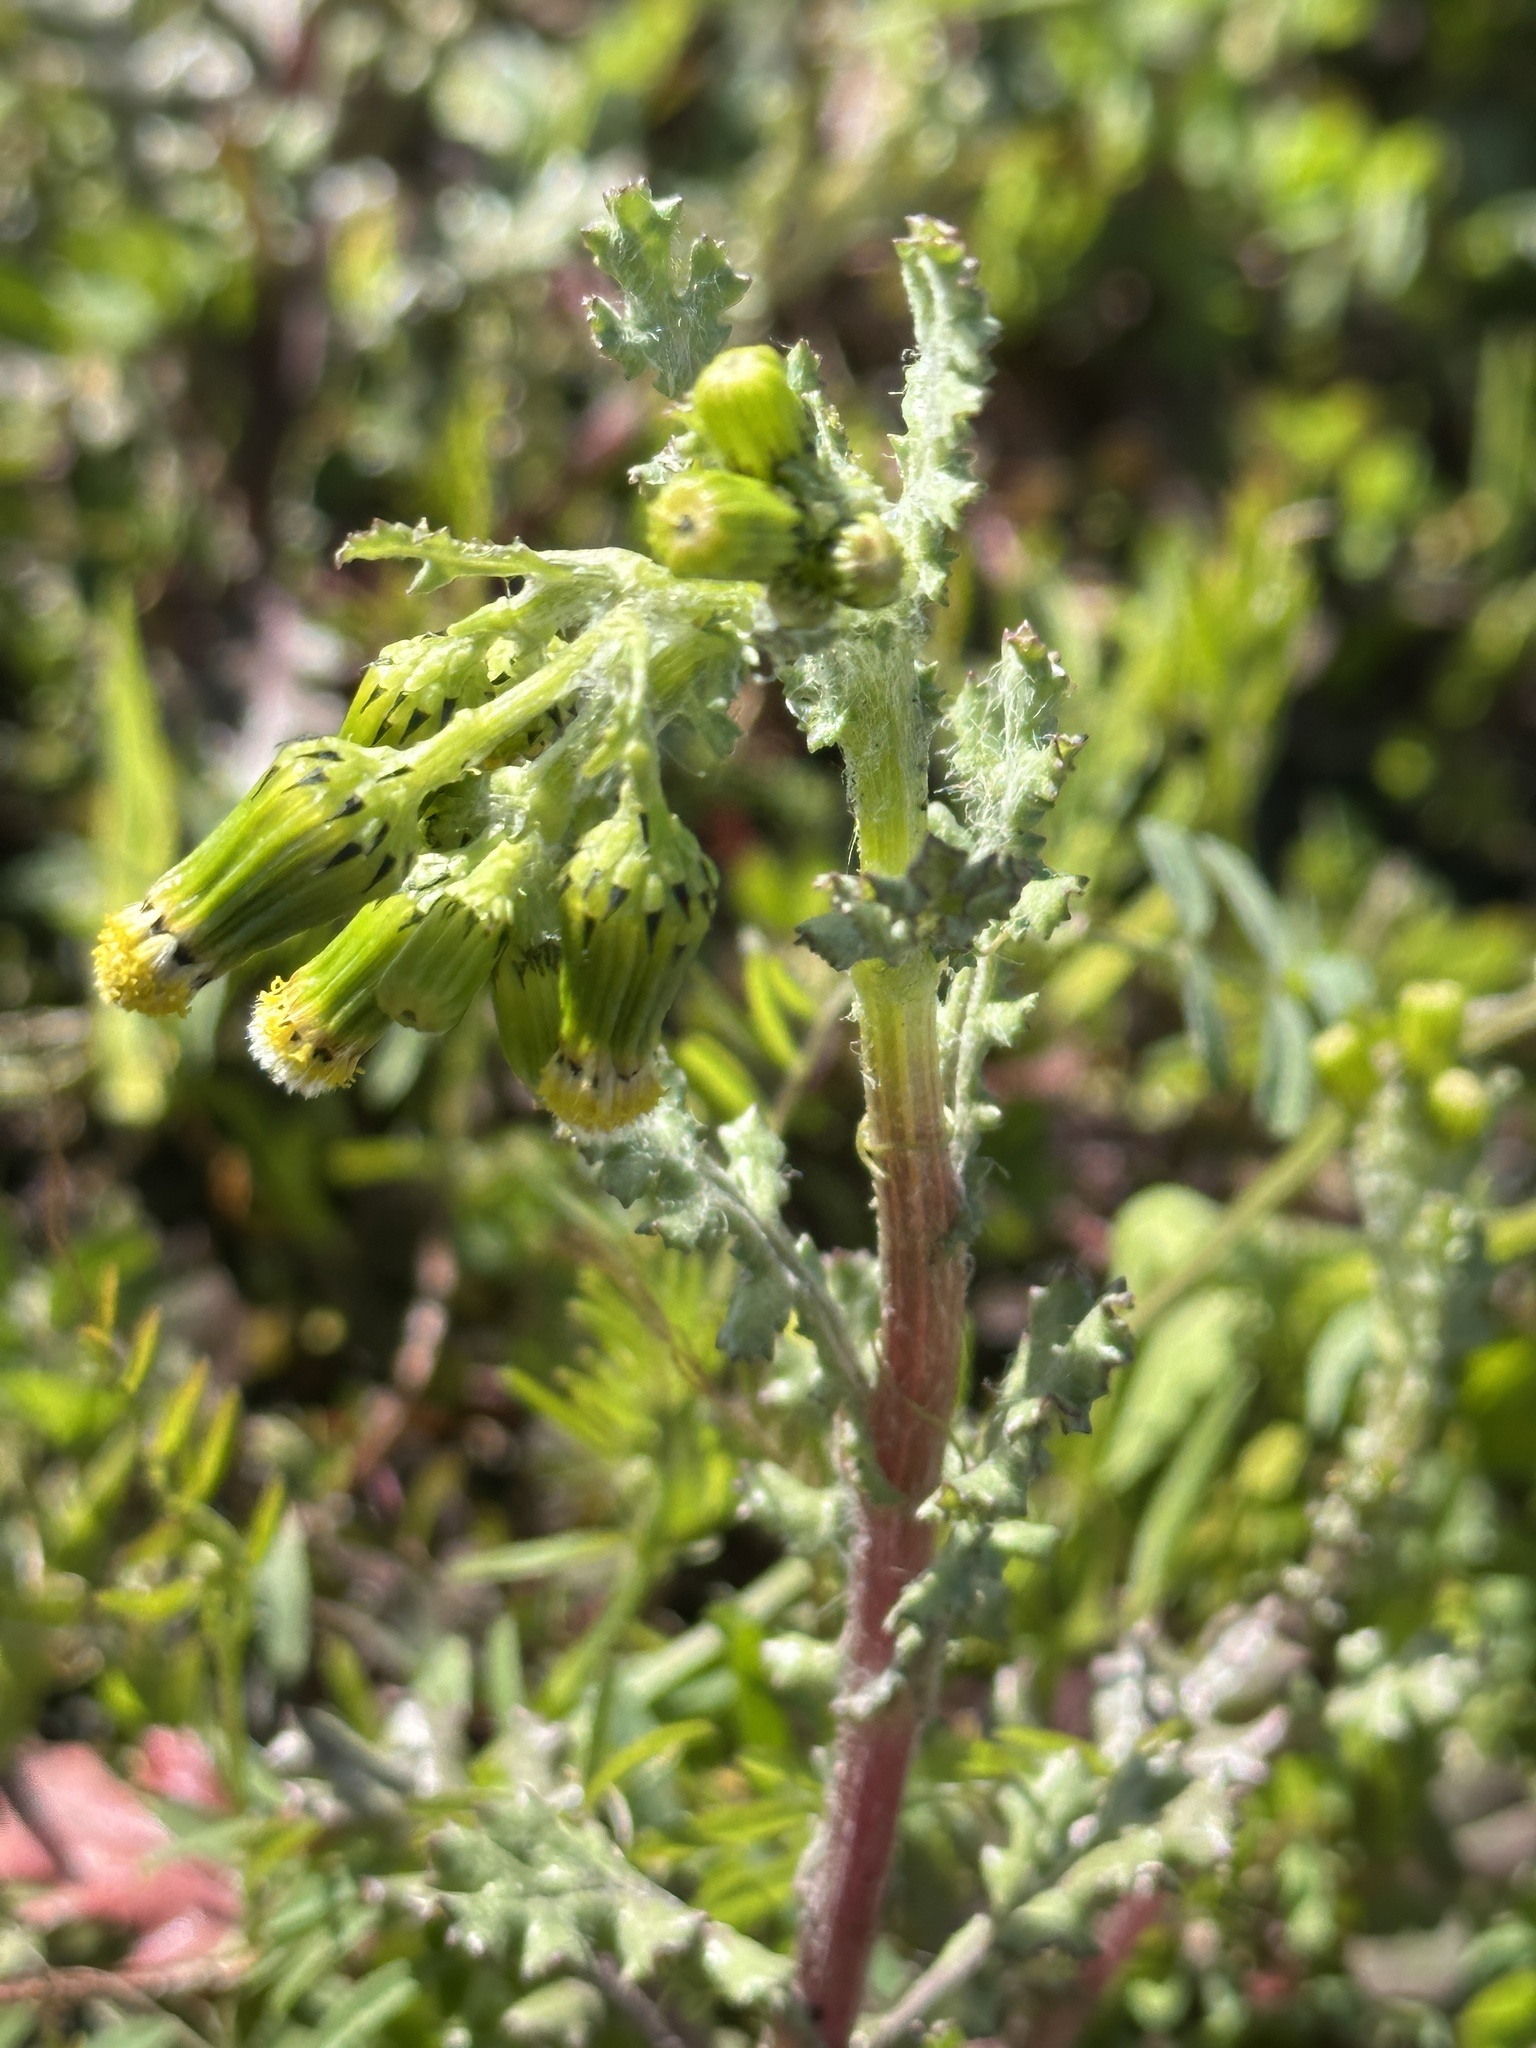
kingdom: Plantae
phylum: Tracheophyta
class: Magnoliopsida
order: Asterales
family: Asteraceae
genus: Senecio
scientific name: Senecio vulgaris
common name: Old-man-in-the-spring
